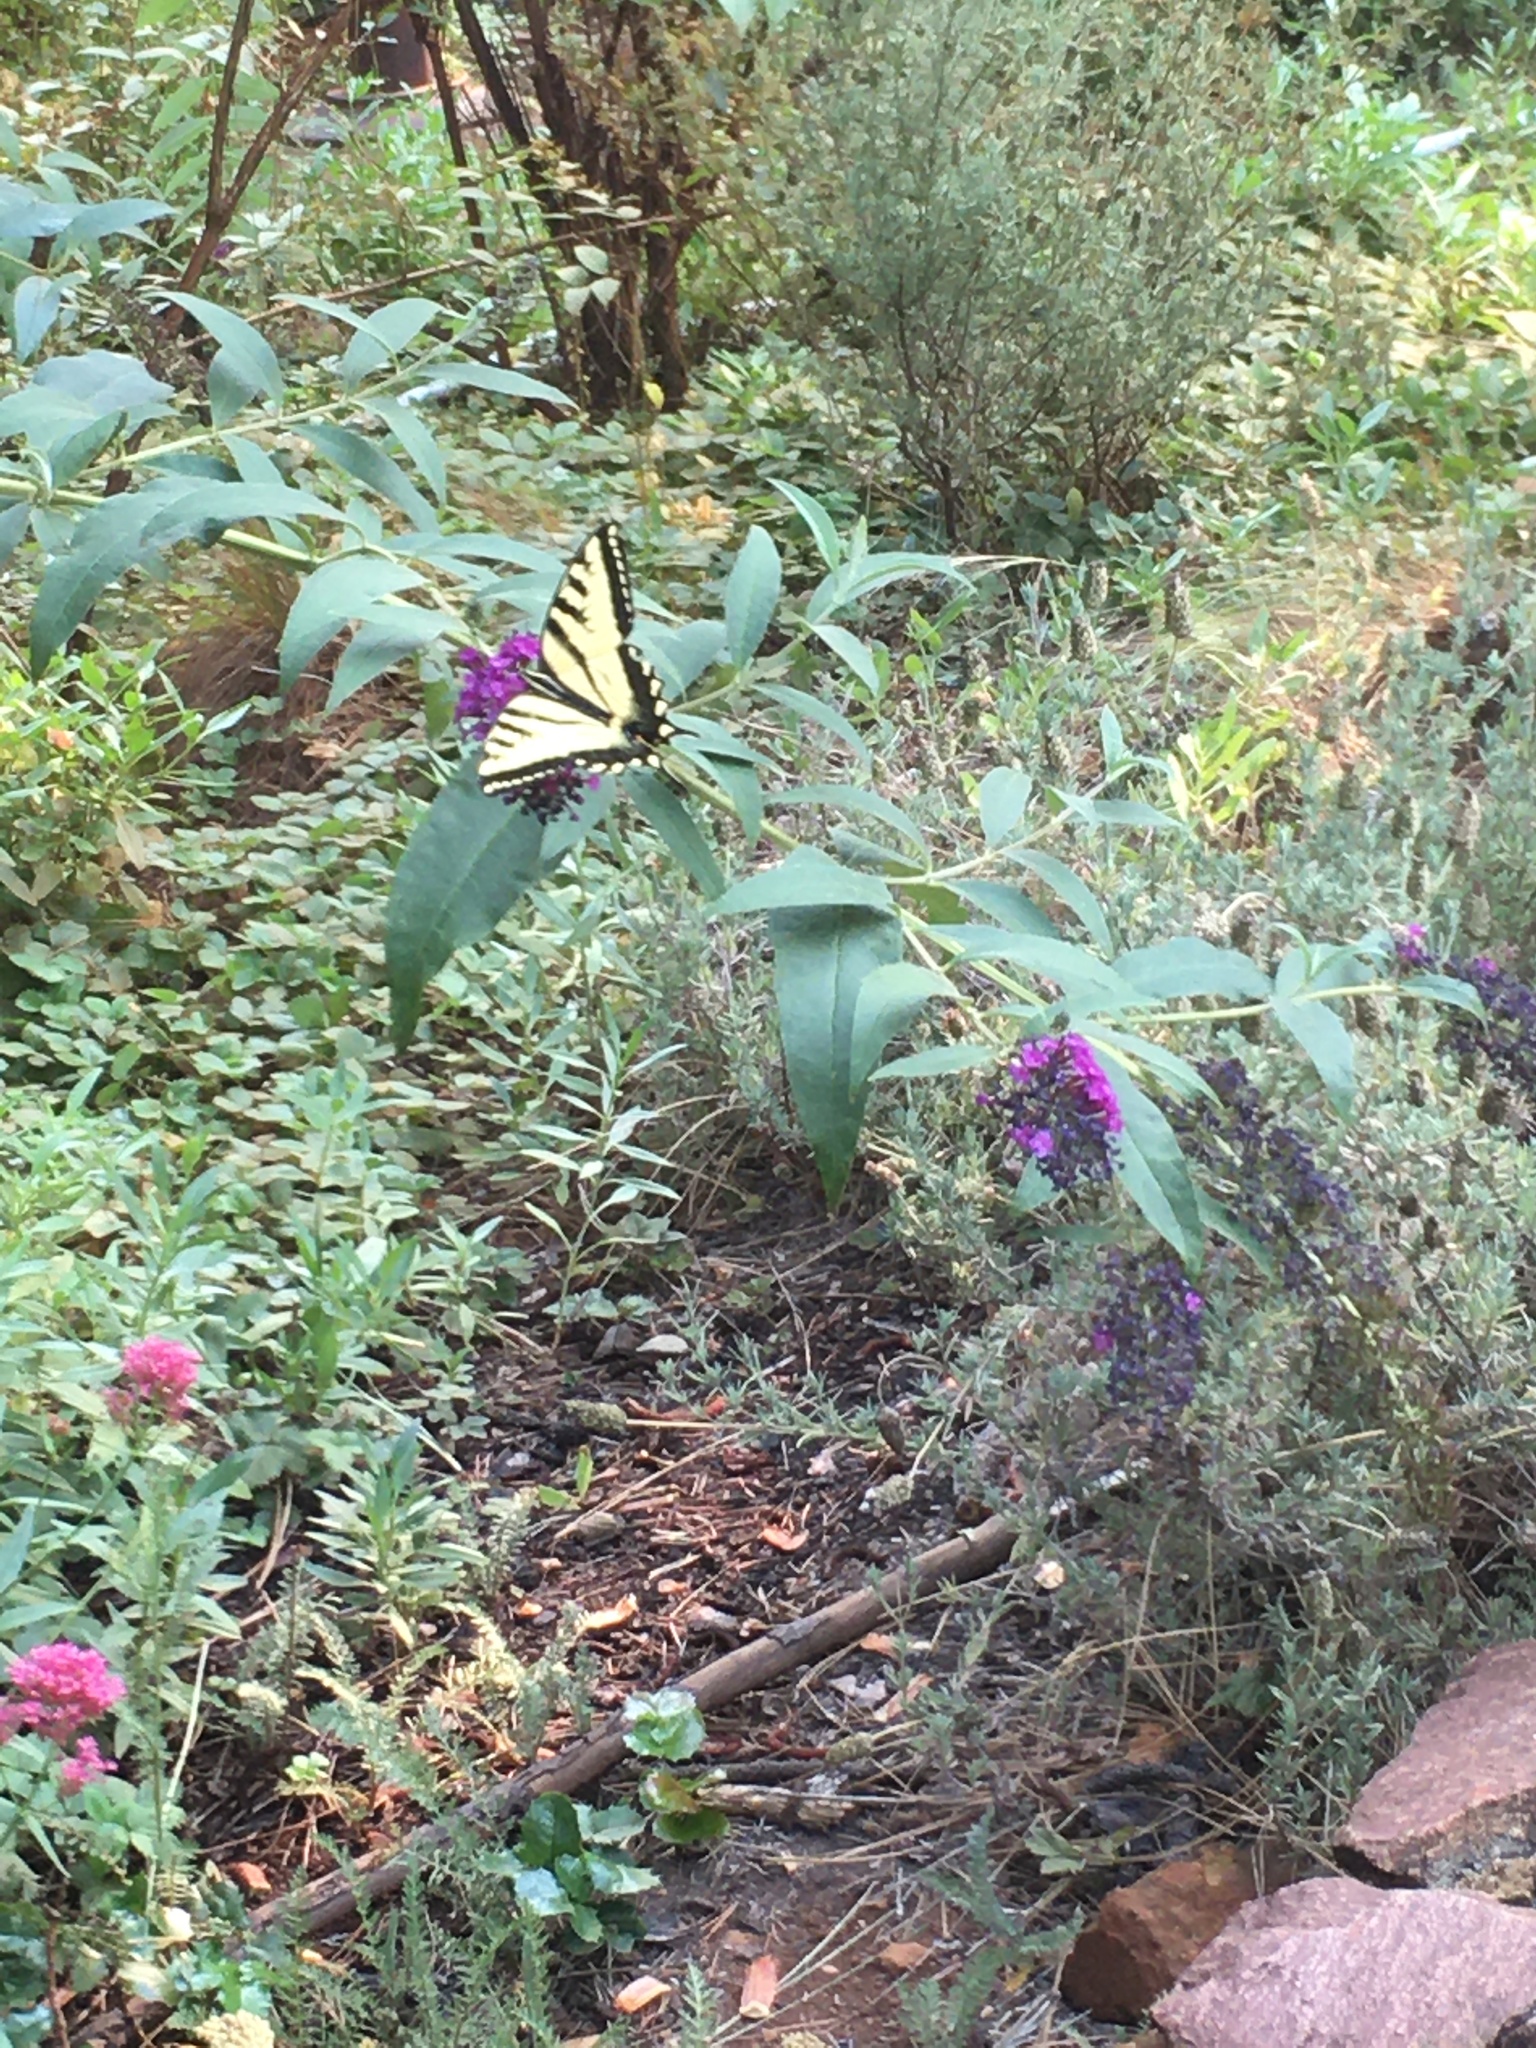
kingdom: Animalia
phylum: Arthropoda
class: Insecta
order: Lepidoptera
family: Papilionidae
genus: Papilio
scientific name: Papilio rutulus
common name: Western tiger swallowtail
